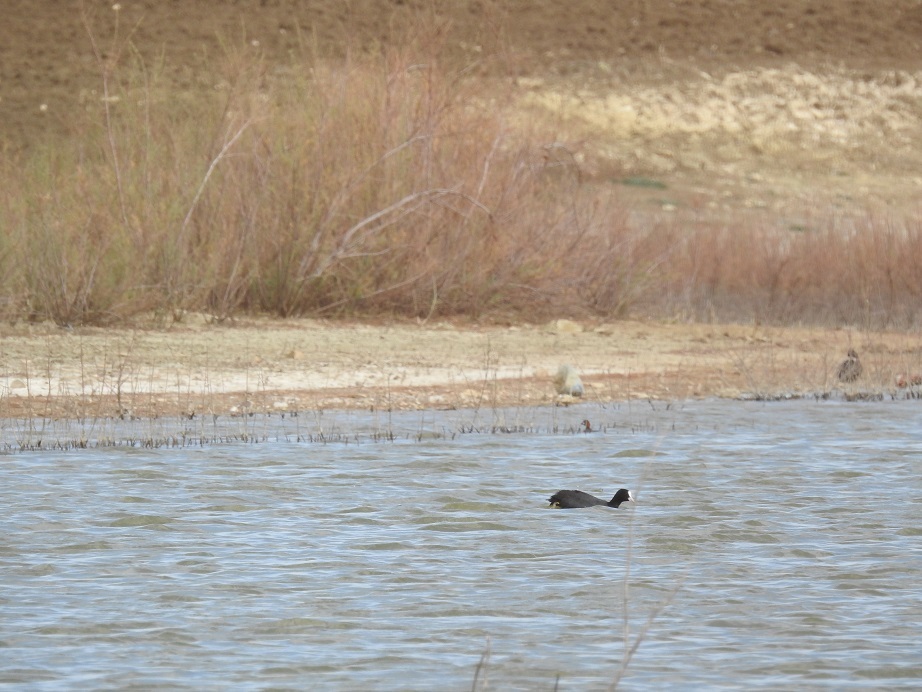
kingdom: Animalia
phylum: Chordata
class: Aves
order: Gruiformes
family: Rallidae
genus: Fulica
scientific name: Fulica atra
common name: Eurasian coot
